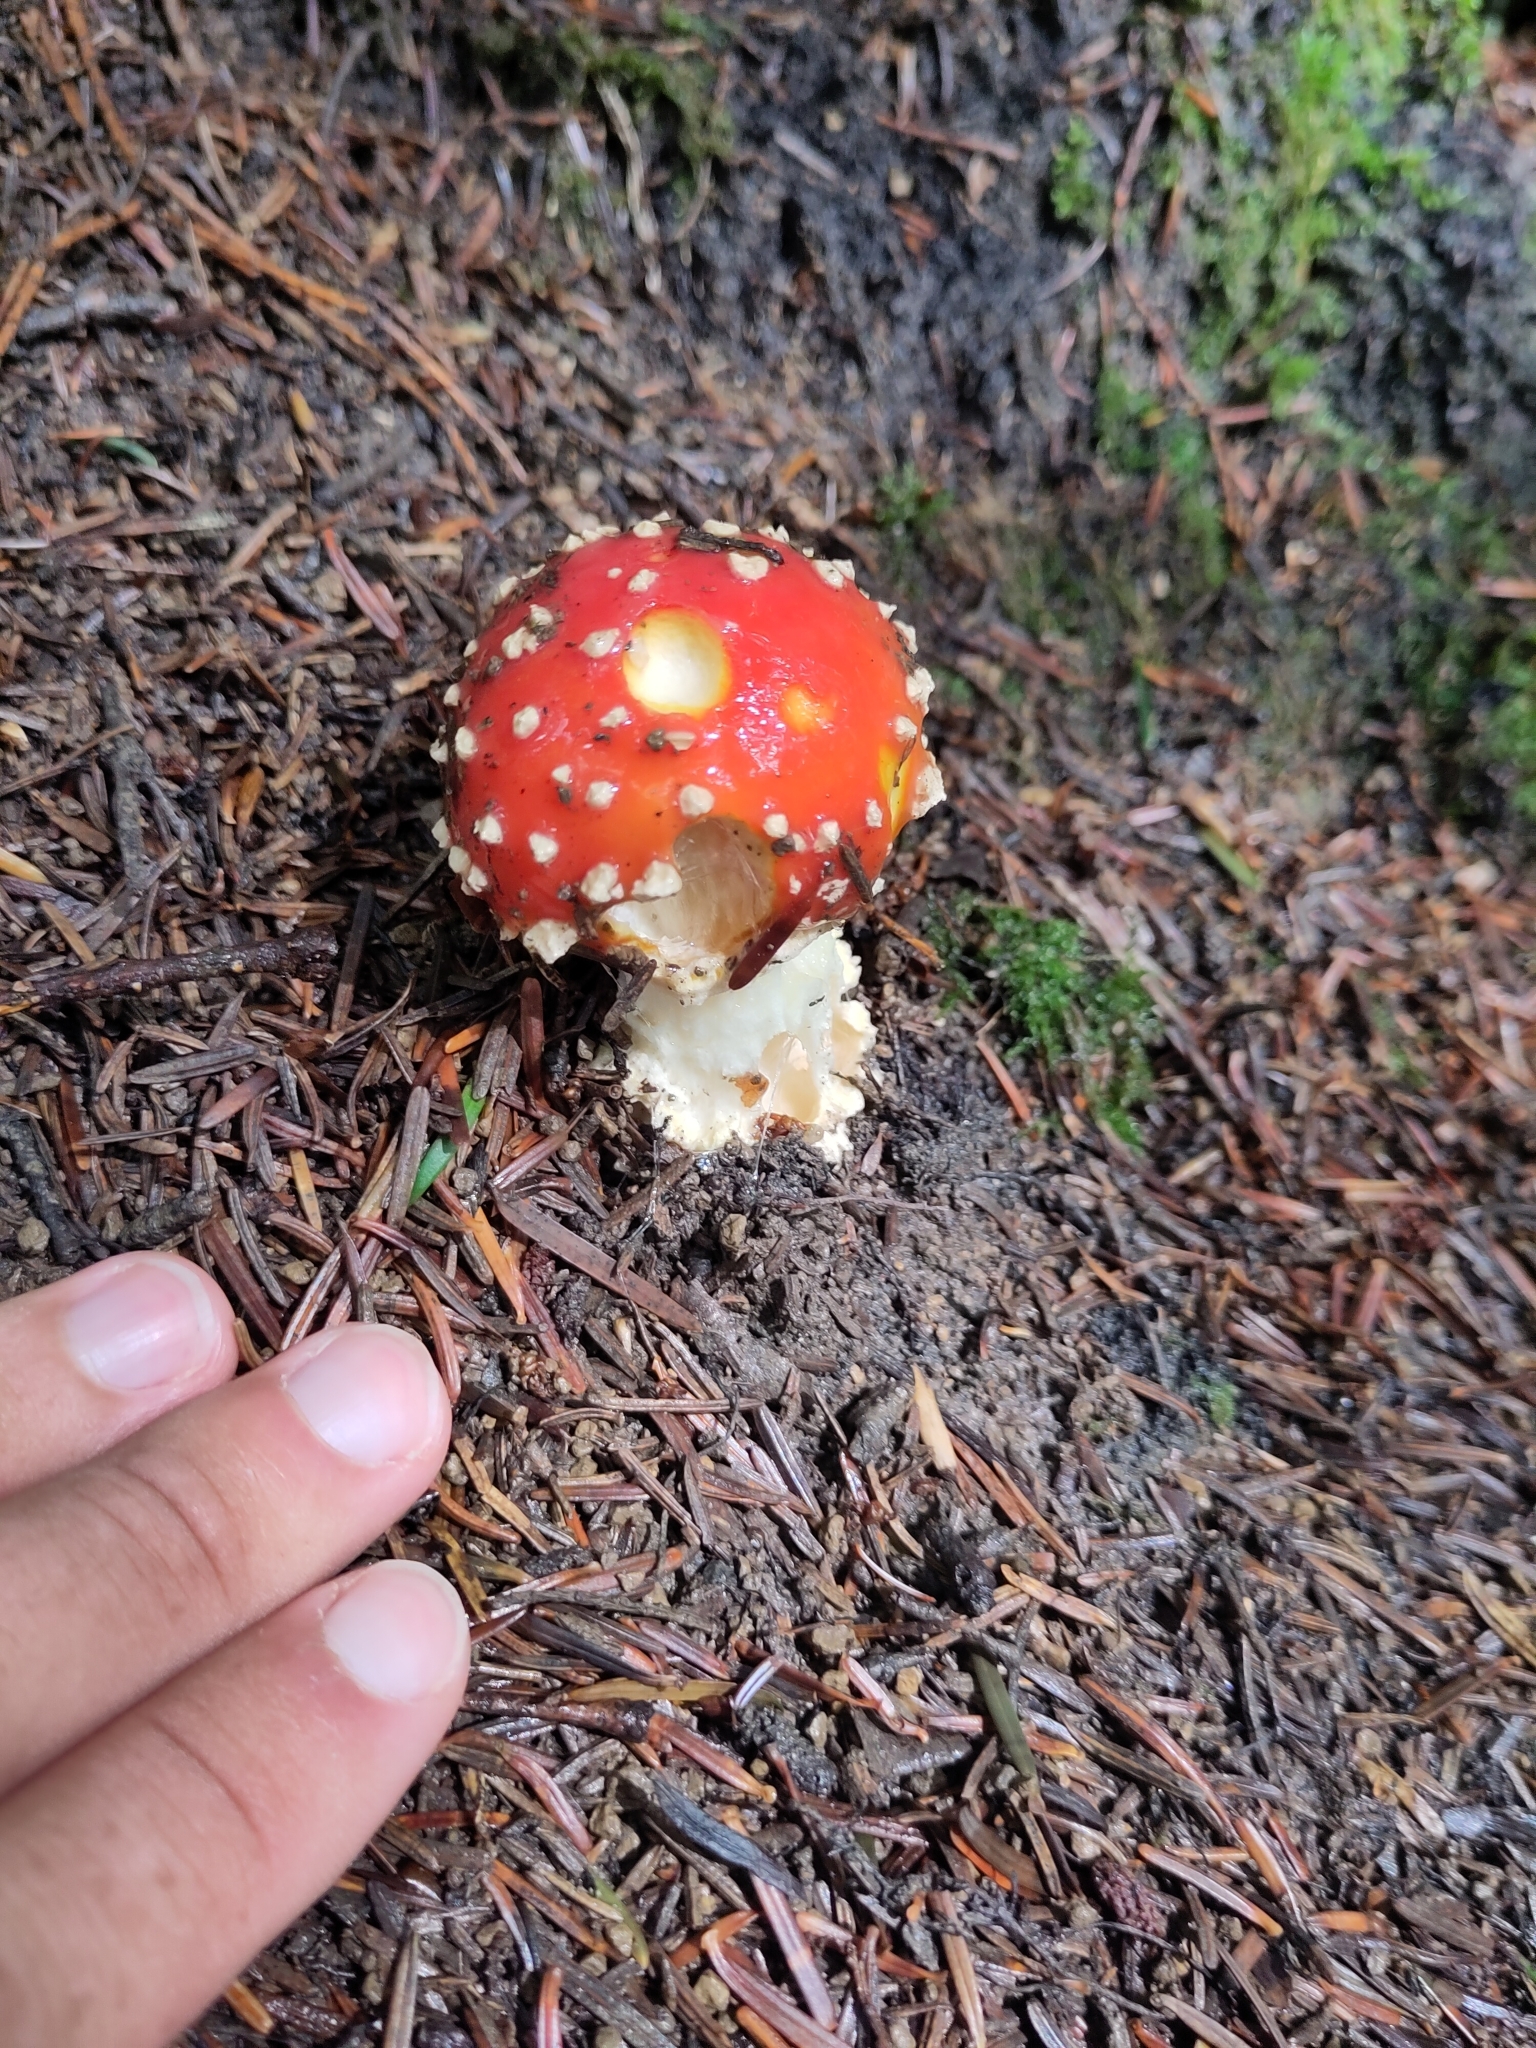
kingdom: Fungi
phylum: Basidiomycota
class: Agaricomycetes
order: Agaricales
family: Amanitaceae
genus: Amanita
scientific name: Amanita muscaria
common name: Fly agaric
